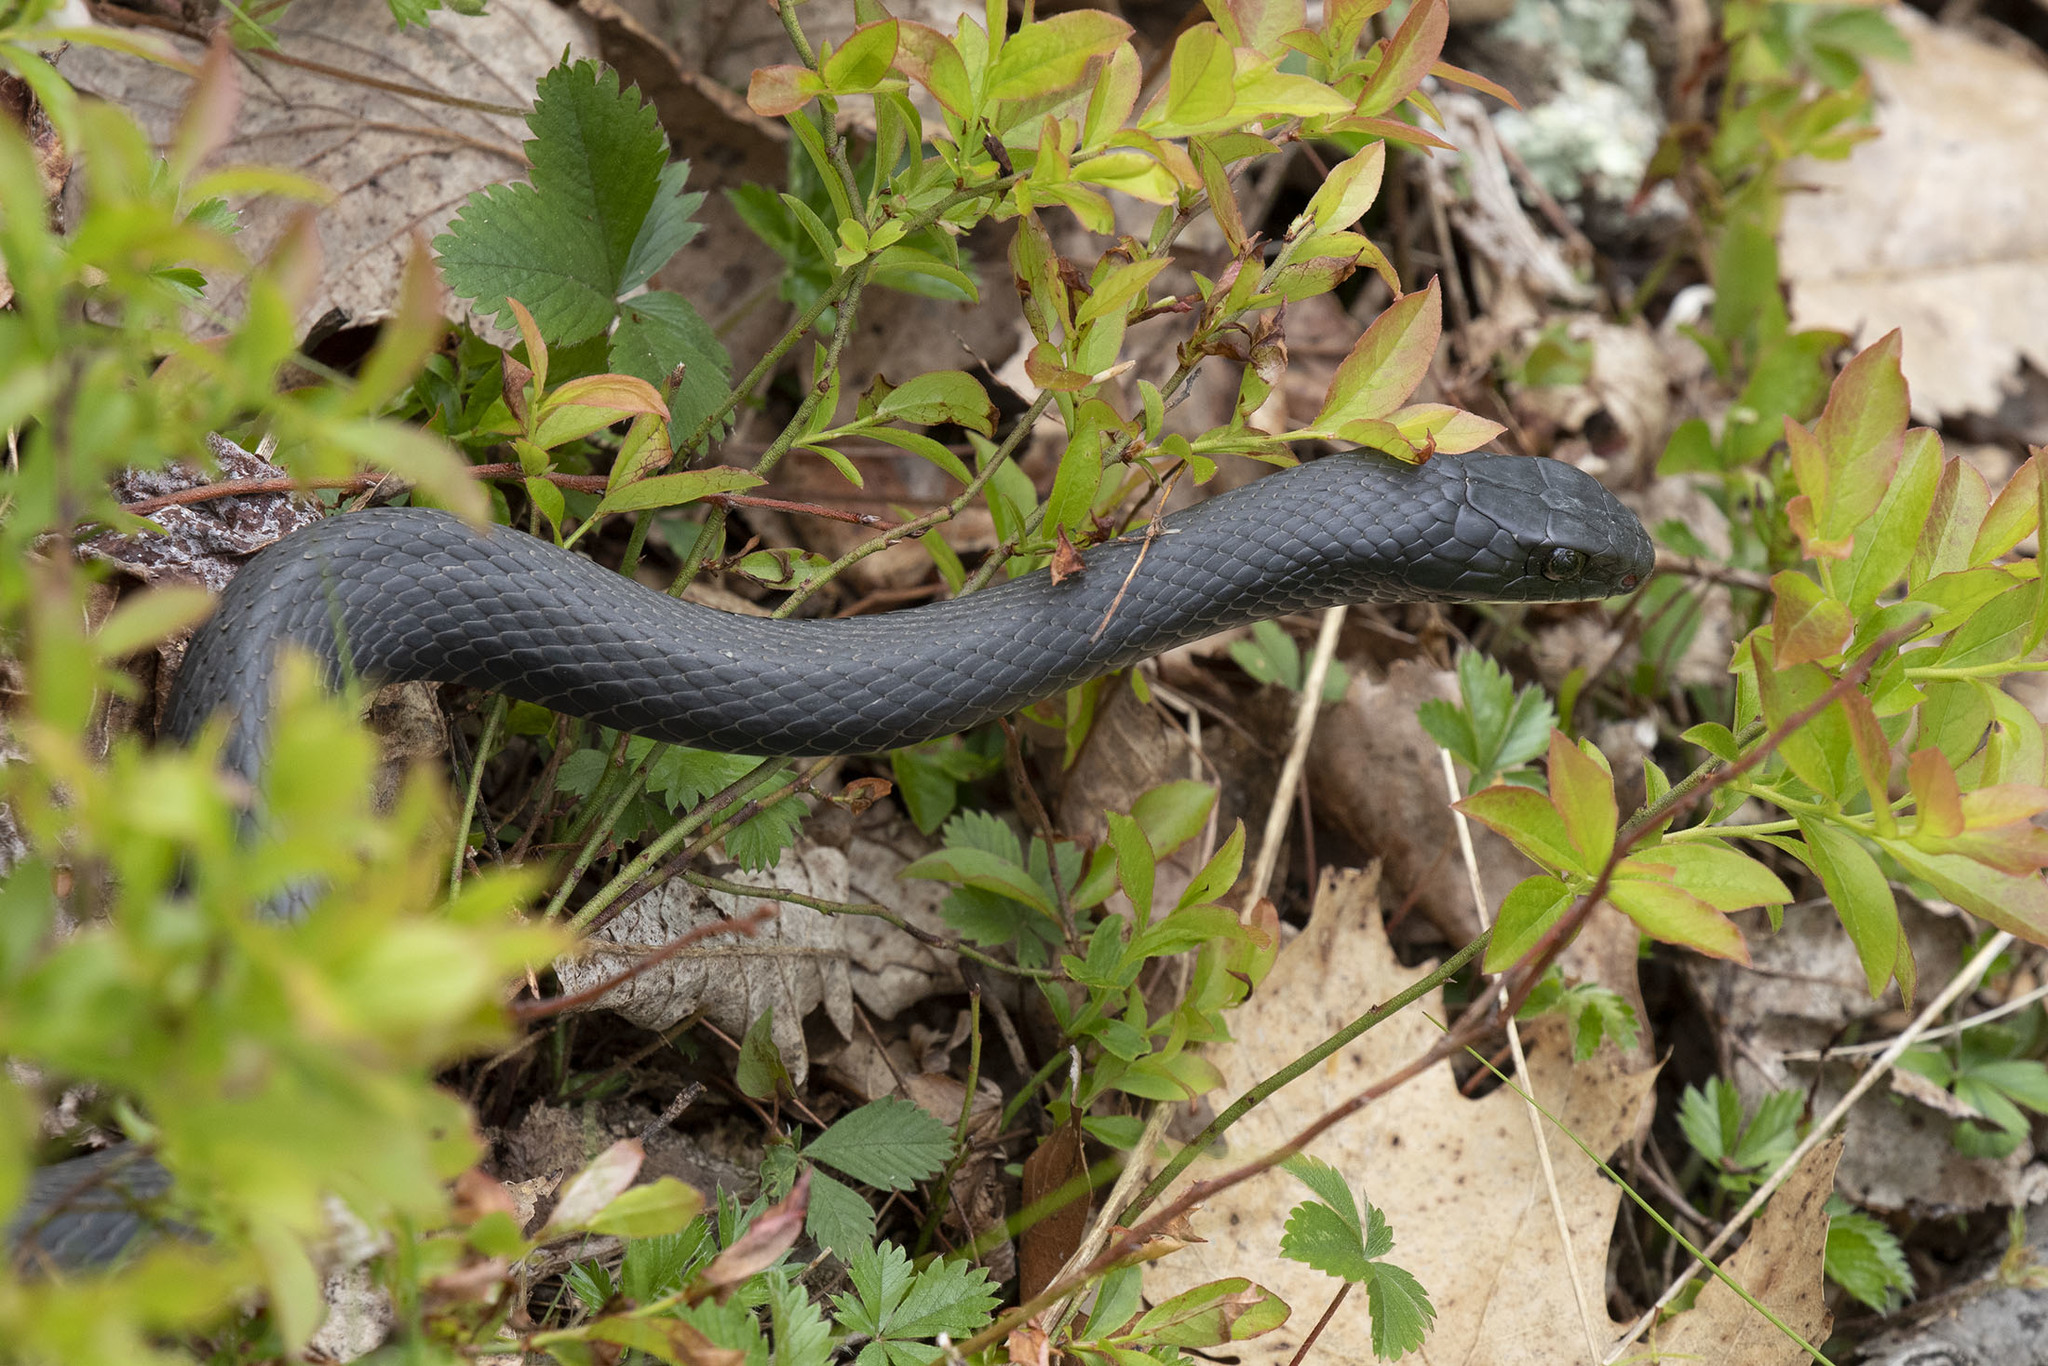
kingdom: Animalia
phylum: Chordata
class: Squamata
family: Colubridae
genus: Coluber
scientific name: Coluber constrictor
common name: Eastern racer
